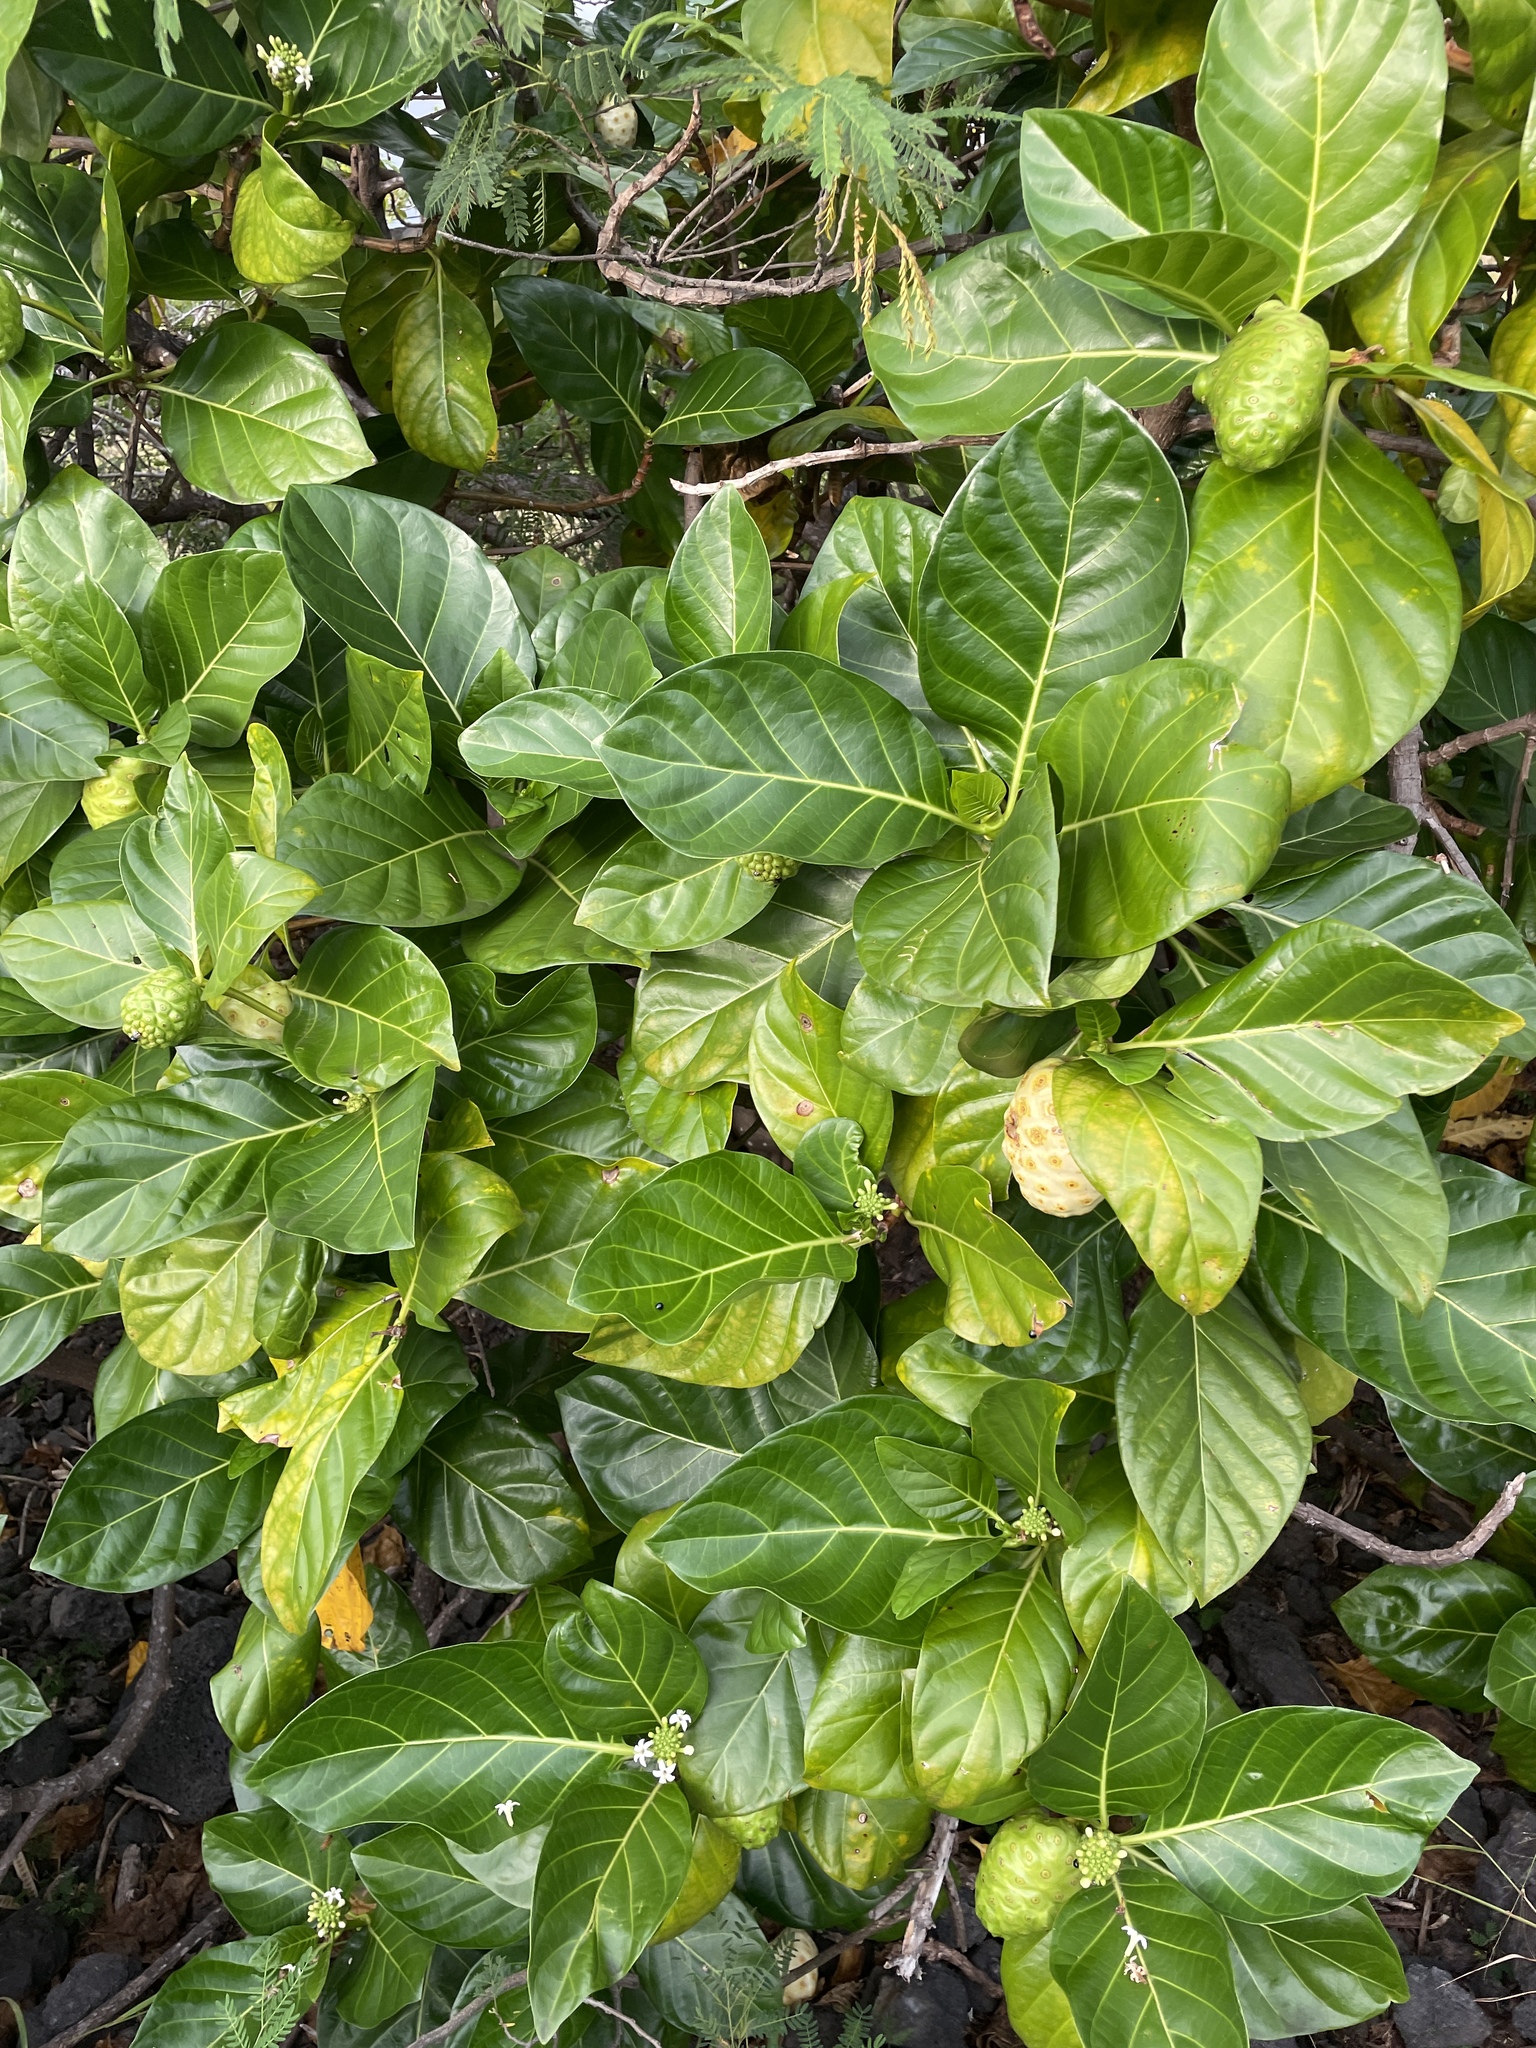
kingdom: Plantae
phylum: Tracheophyta
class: Magnoliopsida
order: Gentianales
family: Rubiaceae
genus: Morinda
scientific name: Morinda citrifolia
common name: Indian-mulberry
